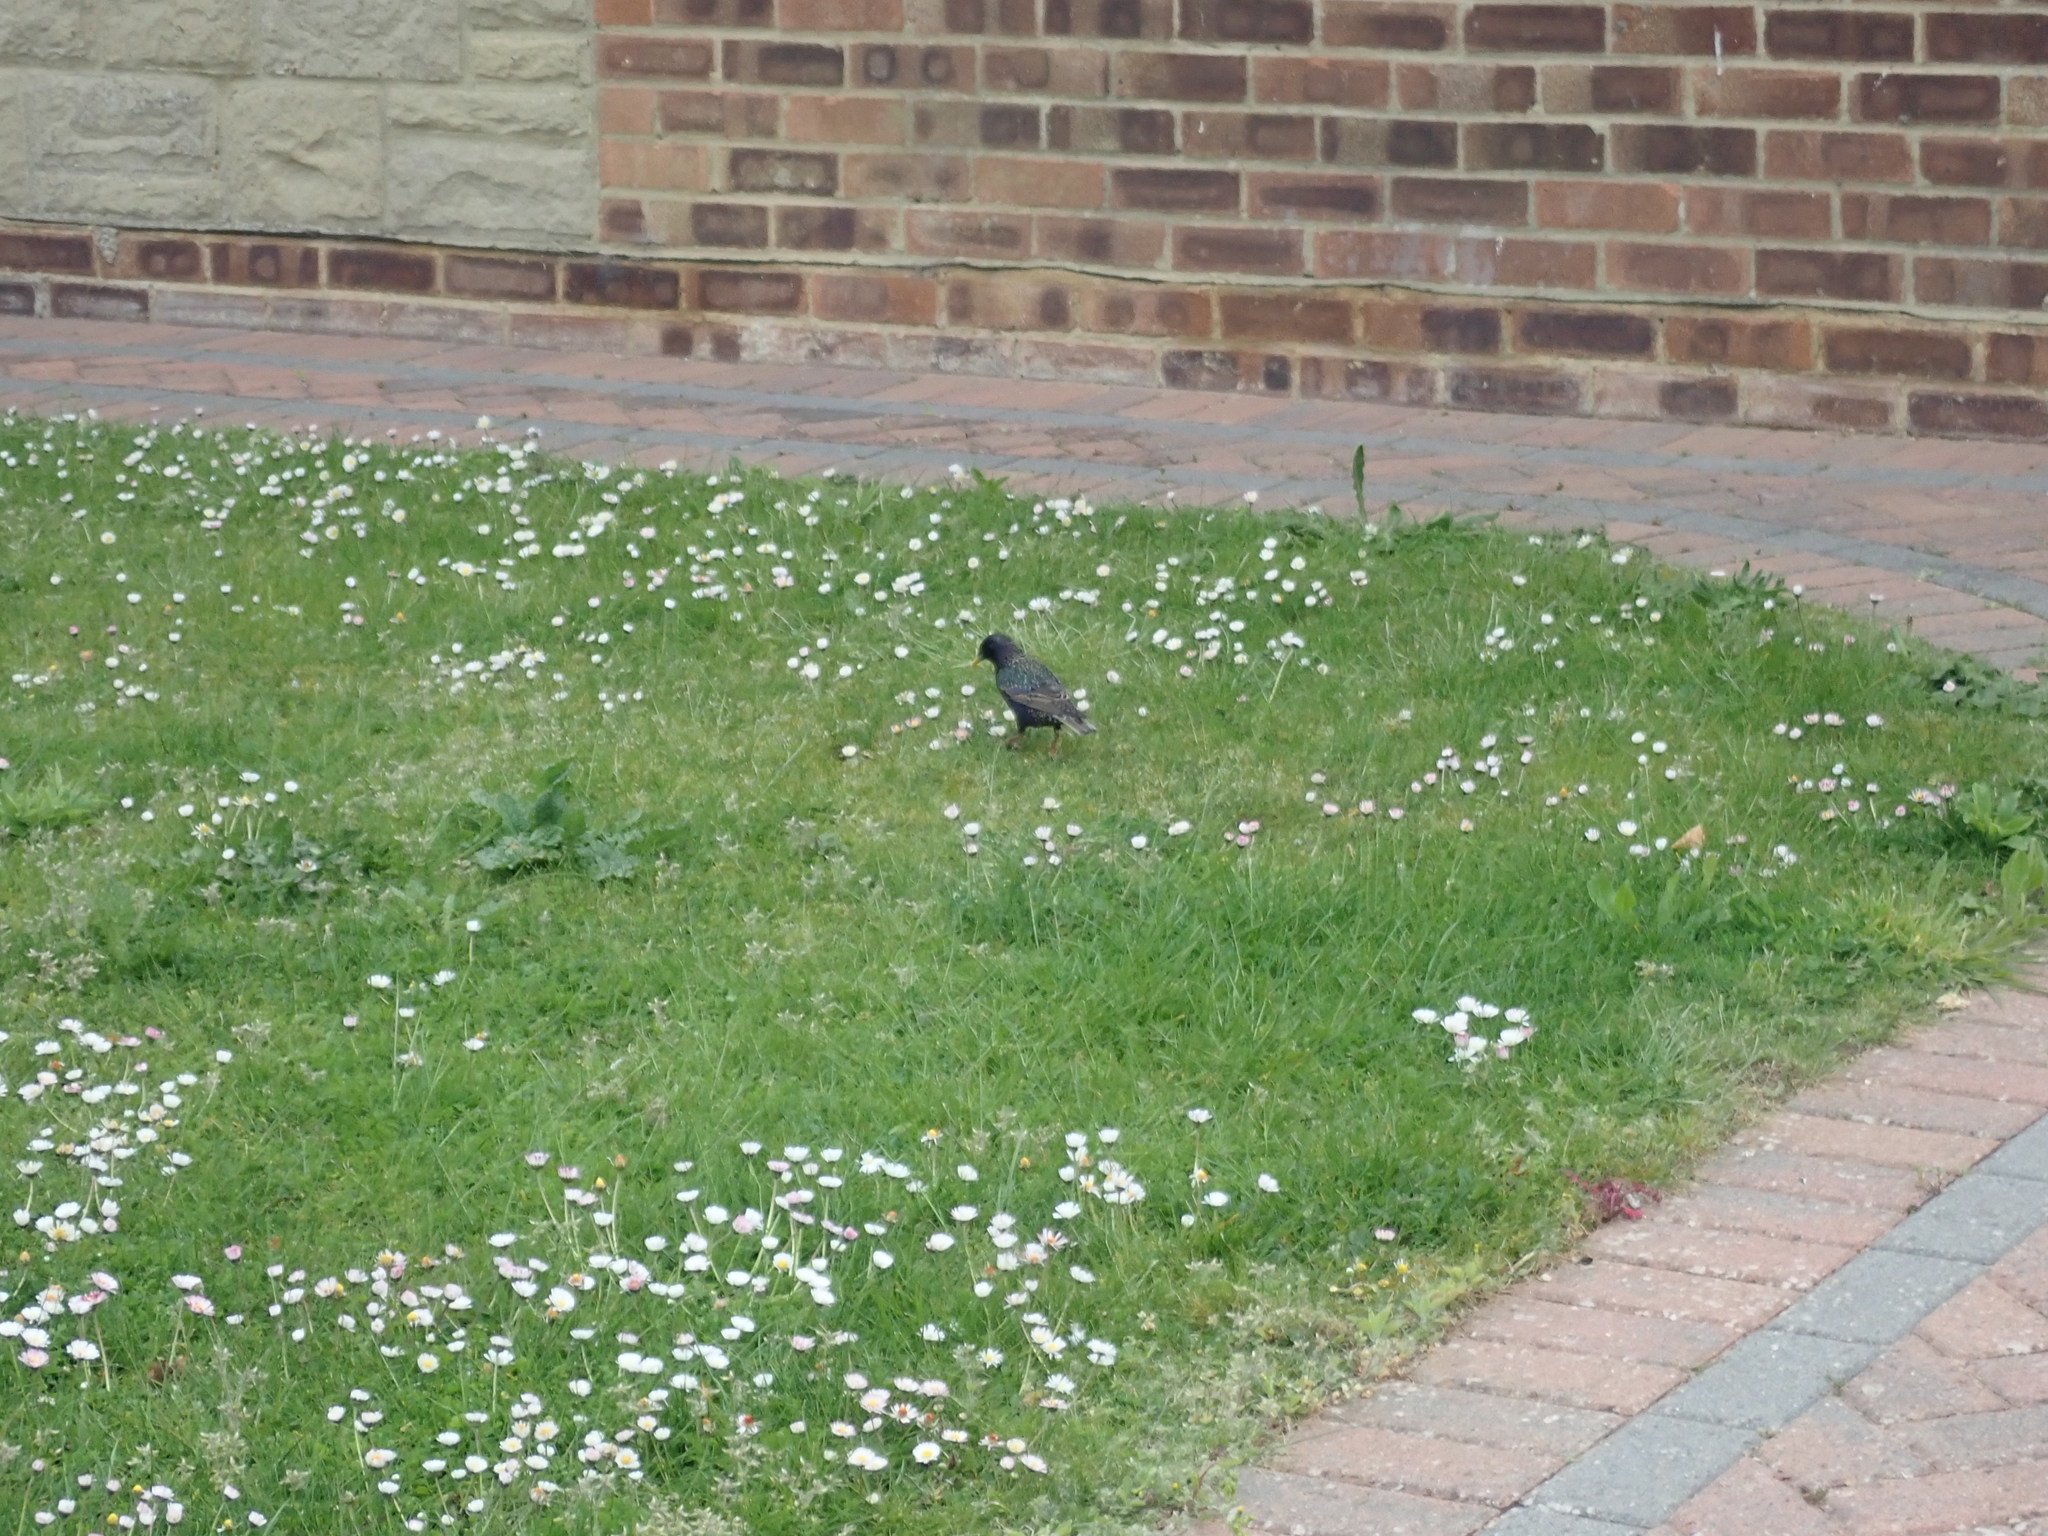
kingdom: Animalia
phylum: Chordata
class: Aves
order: Passeriformes
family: Sturnidae
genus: Sturnus
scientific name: Sturnus vulgaris
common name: Common starling
